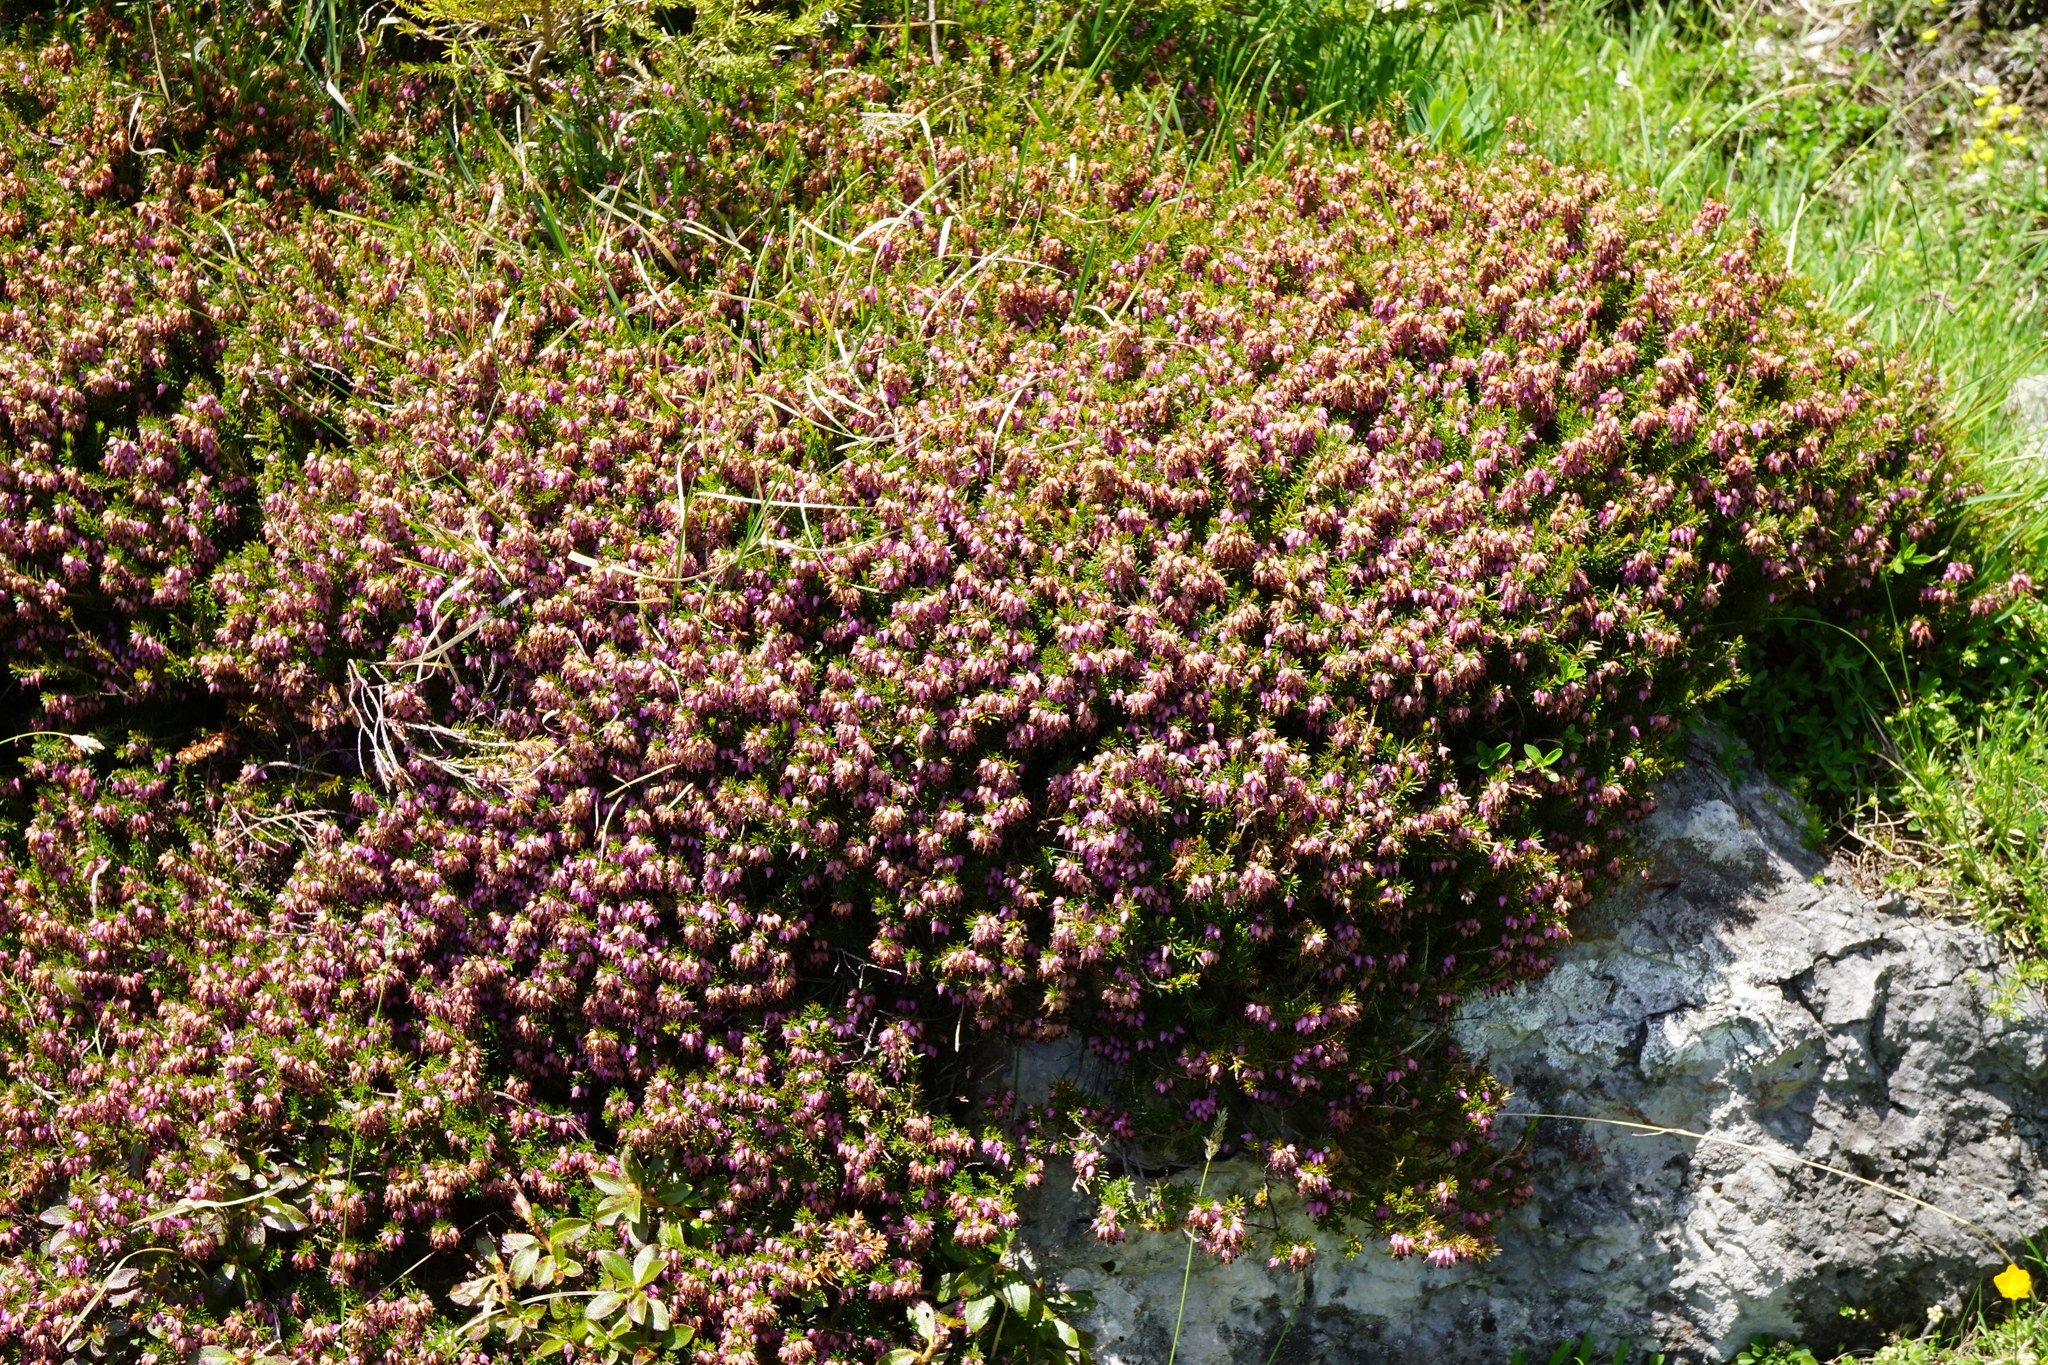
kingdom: Plantae
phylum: Tracheophyta
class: Magnoliopsida
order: Ericales
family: Ericaceae
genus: Erica
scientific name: Erica carnea
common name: Winter heath
